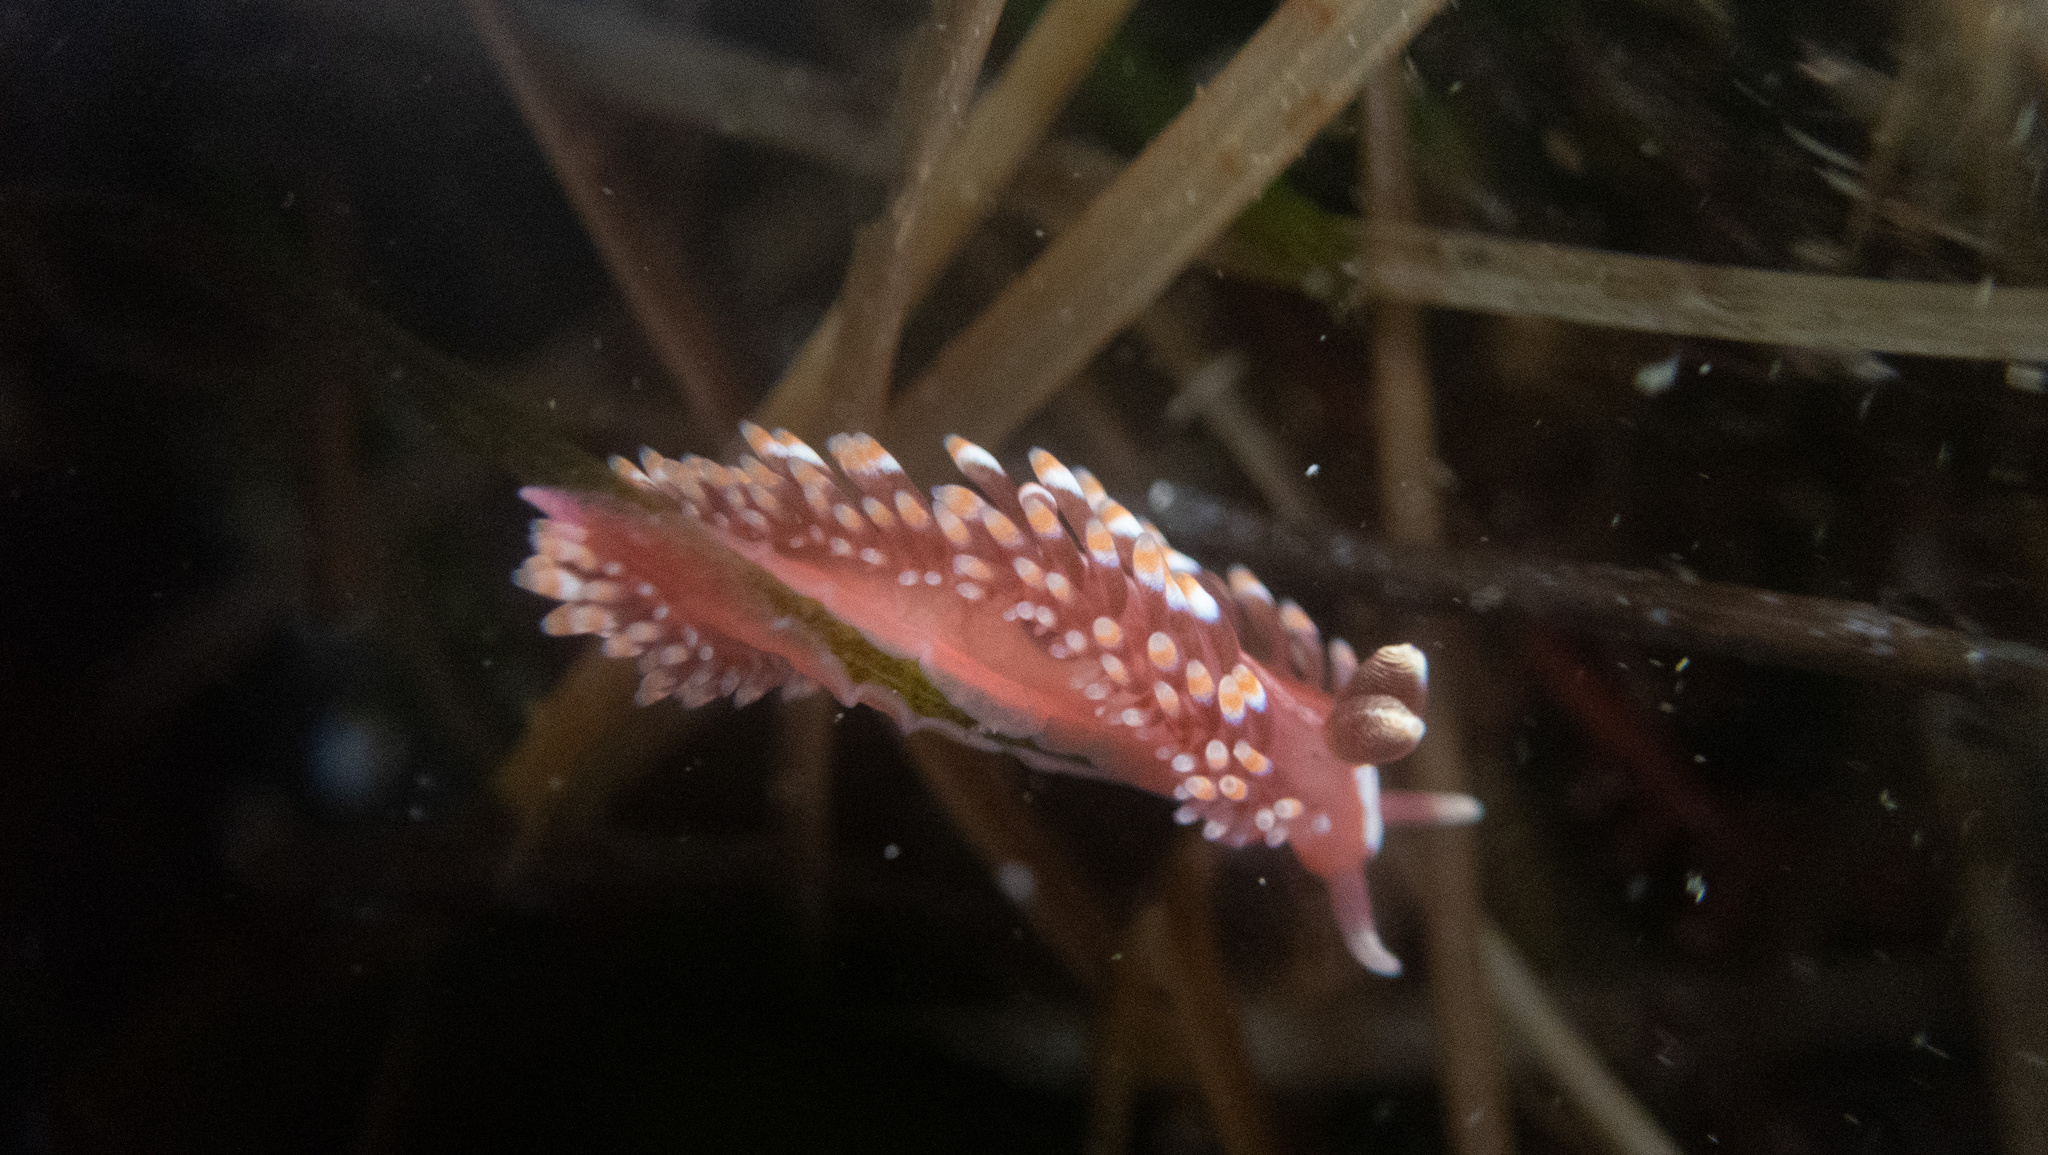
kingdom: Animalia
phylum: Mollusca
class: Gastropoda
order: Nudibranchia
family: Babakinidae
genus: Babakina
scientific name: Babakina festiva
